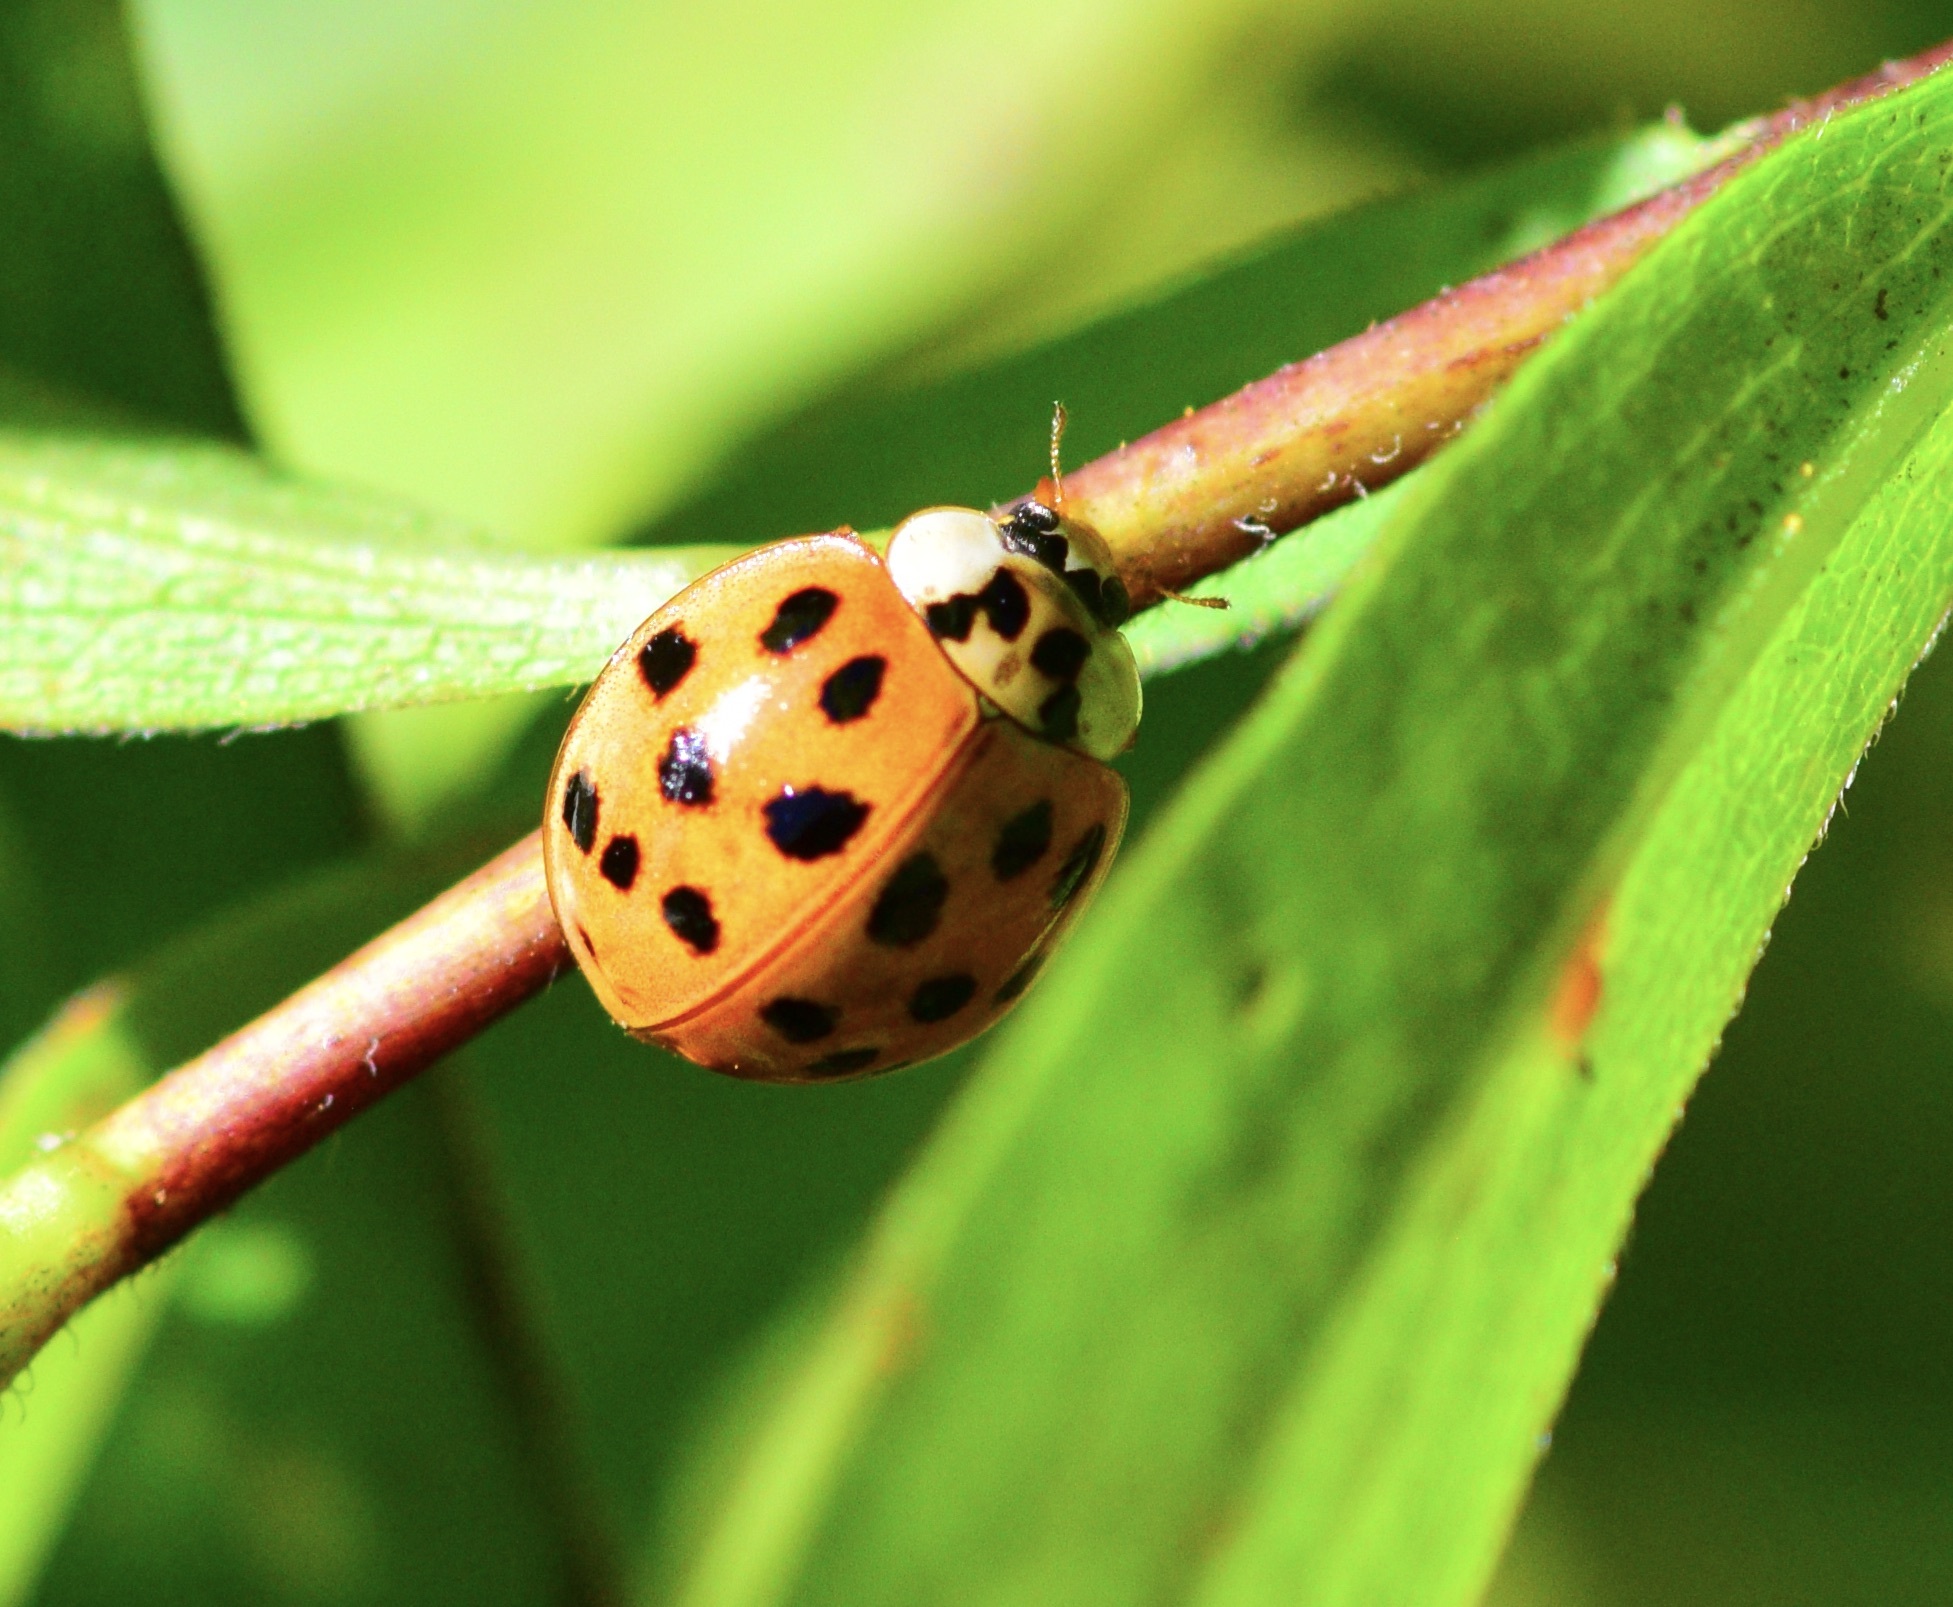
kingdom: Animalia
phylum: Arthropoda
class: Insecta
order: Coleoptera
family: Coccinellidae
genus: Harmonia
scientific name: Harmonia axyridis
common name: Harlequin ladybird
